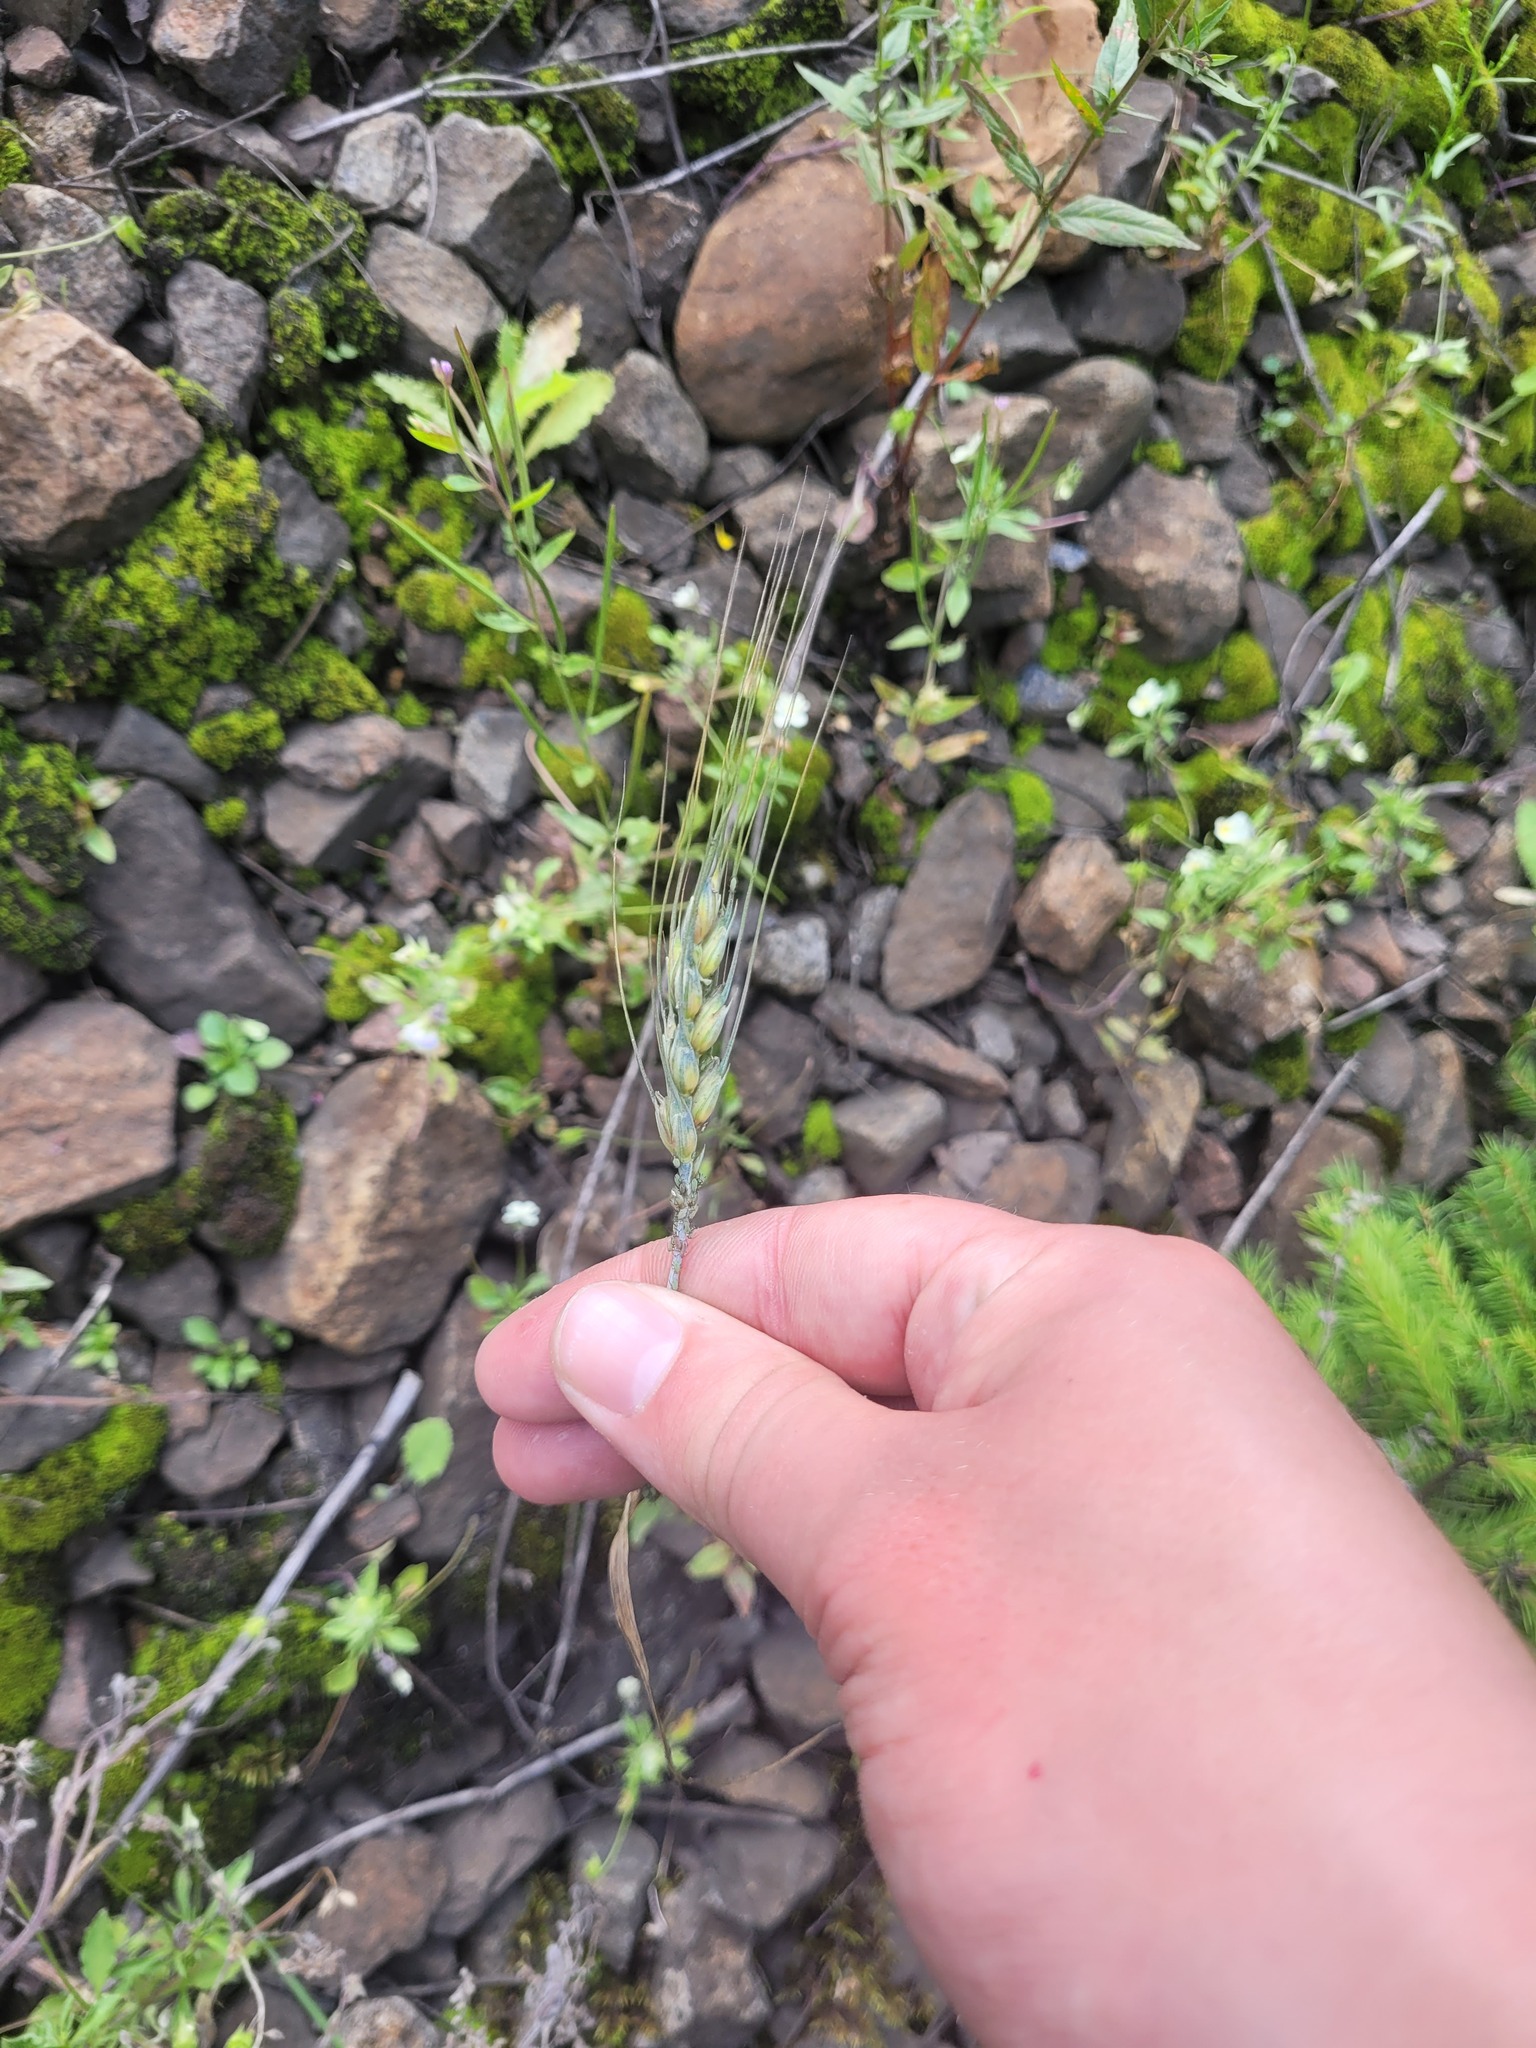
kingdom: Plantae
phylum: Tracheophyta
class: Liliopsida
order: Poales
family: Poaceae
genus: Triticum
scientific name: Triticum aestivum
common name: Common wheat
